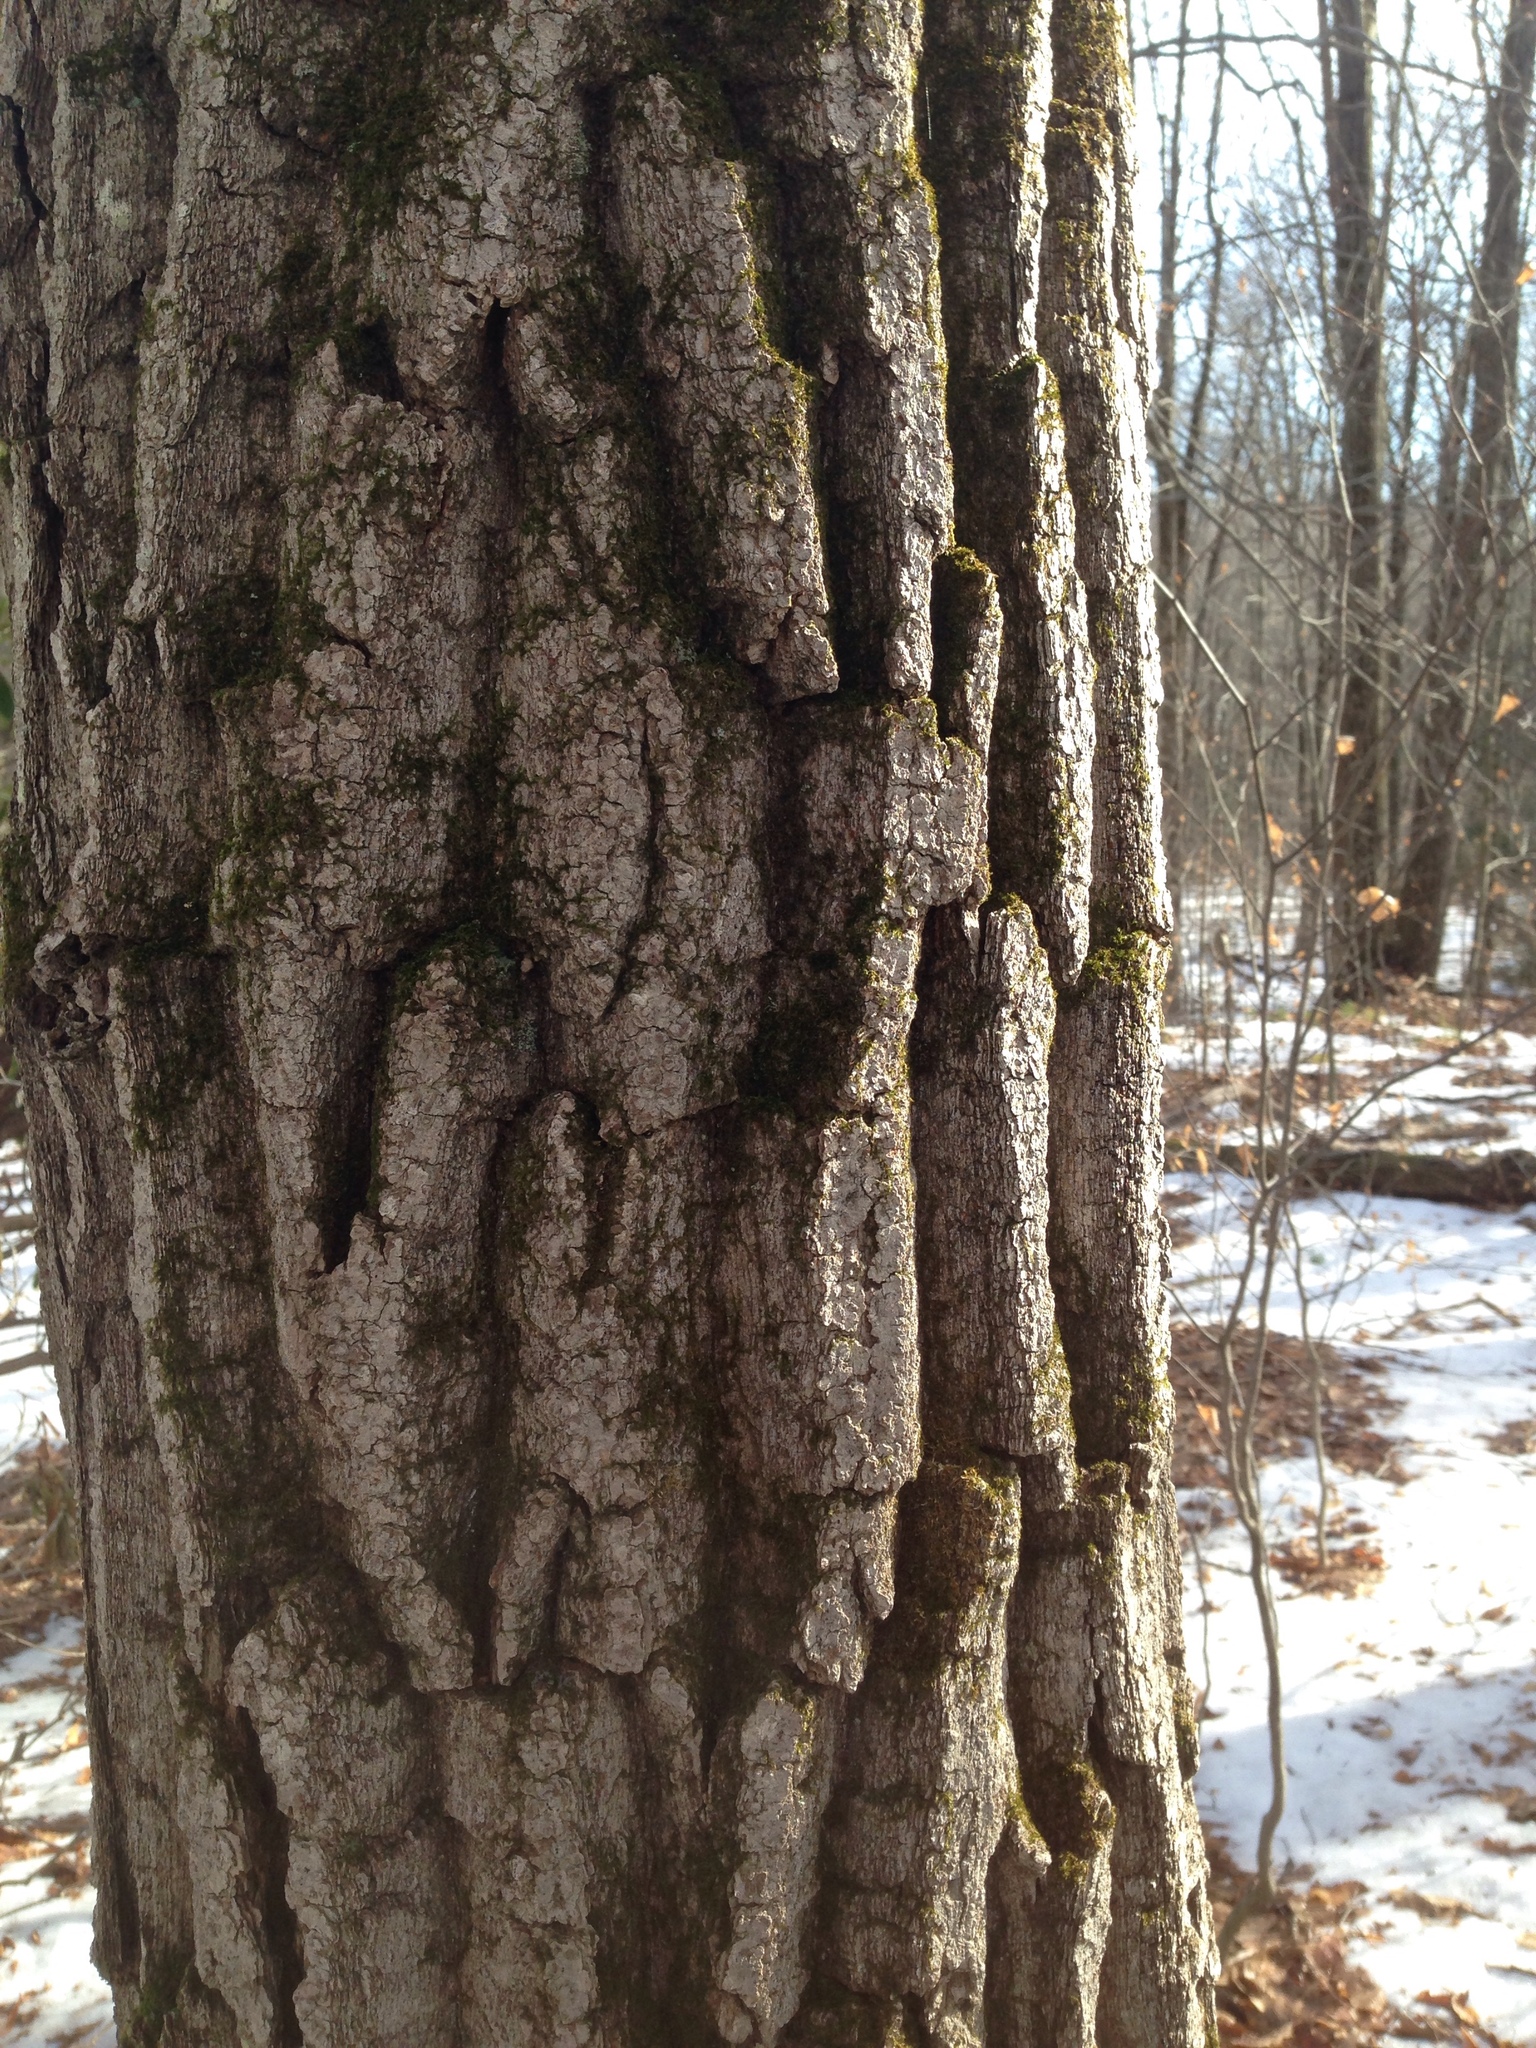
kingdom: Plantae
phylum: Tracheophyta
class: Magnoliopsida
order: Fagales
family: Fagaceae
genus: Quercus
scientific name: Quercus montana
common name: Chestnut oak
